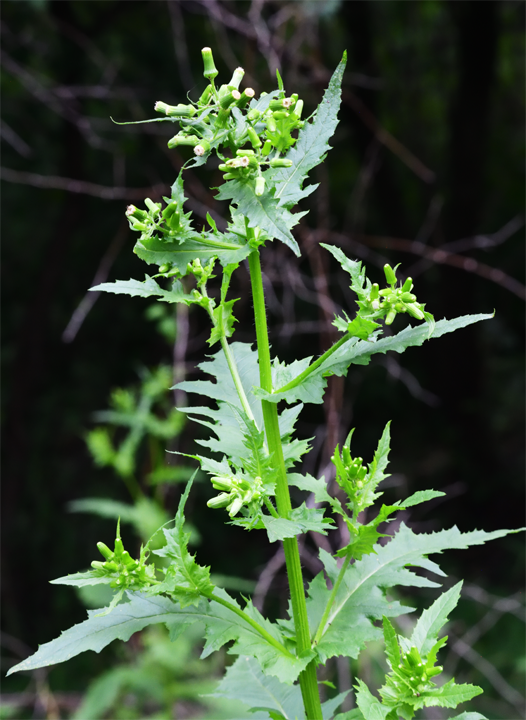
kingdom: Plantae
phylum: Tracheophyta
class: Magnoliopsida
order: Asterales
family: Asteraceae
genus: Erechtites
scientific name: Erechtites hieraciifolius
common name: American burnweed
